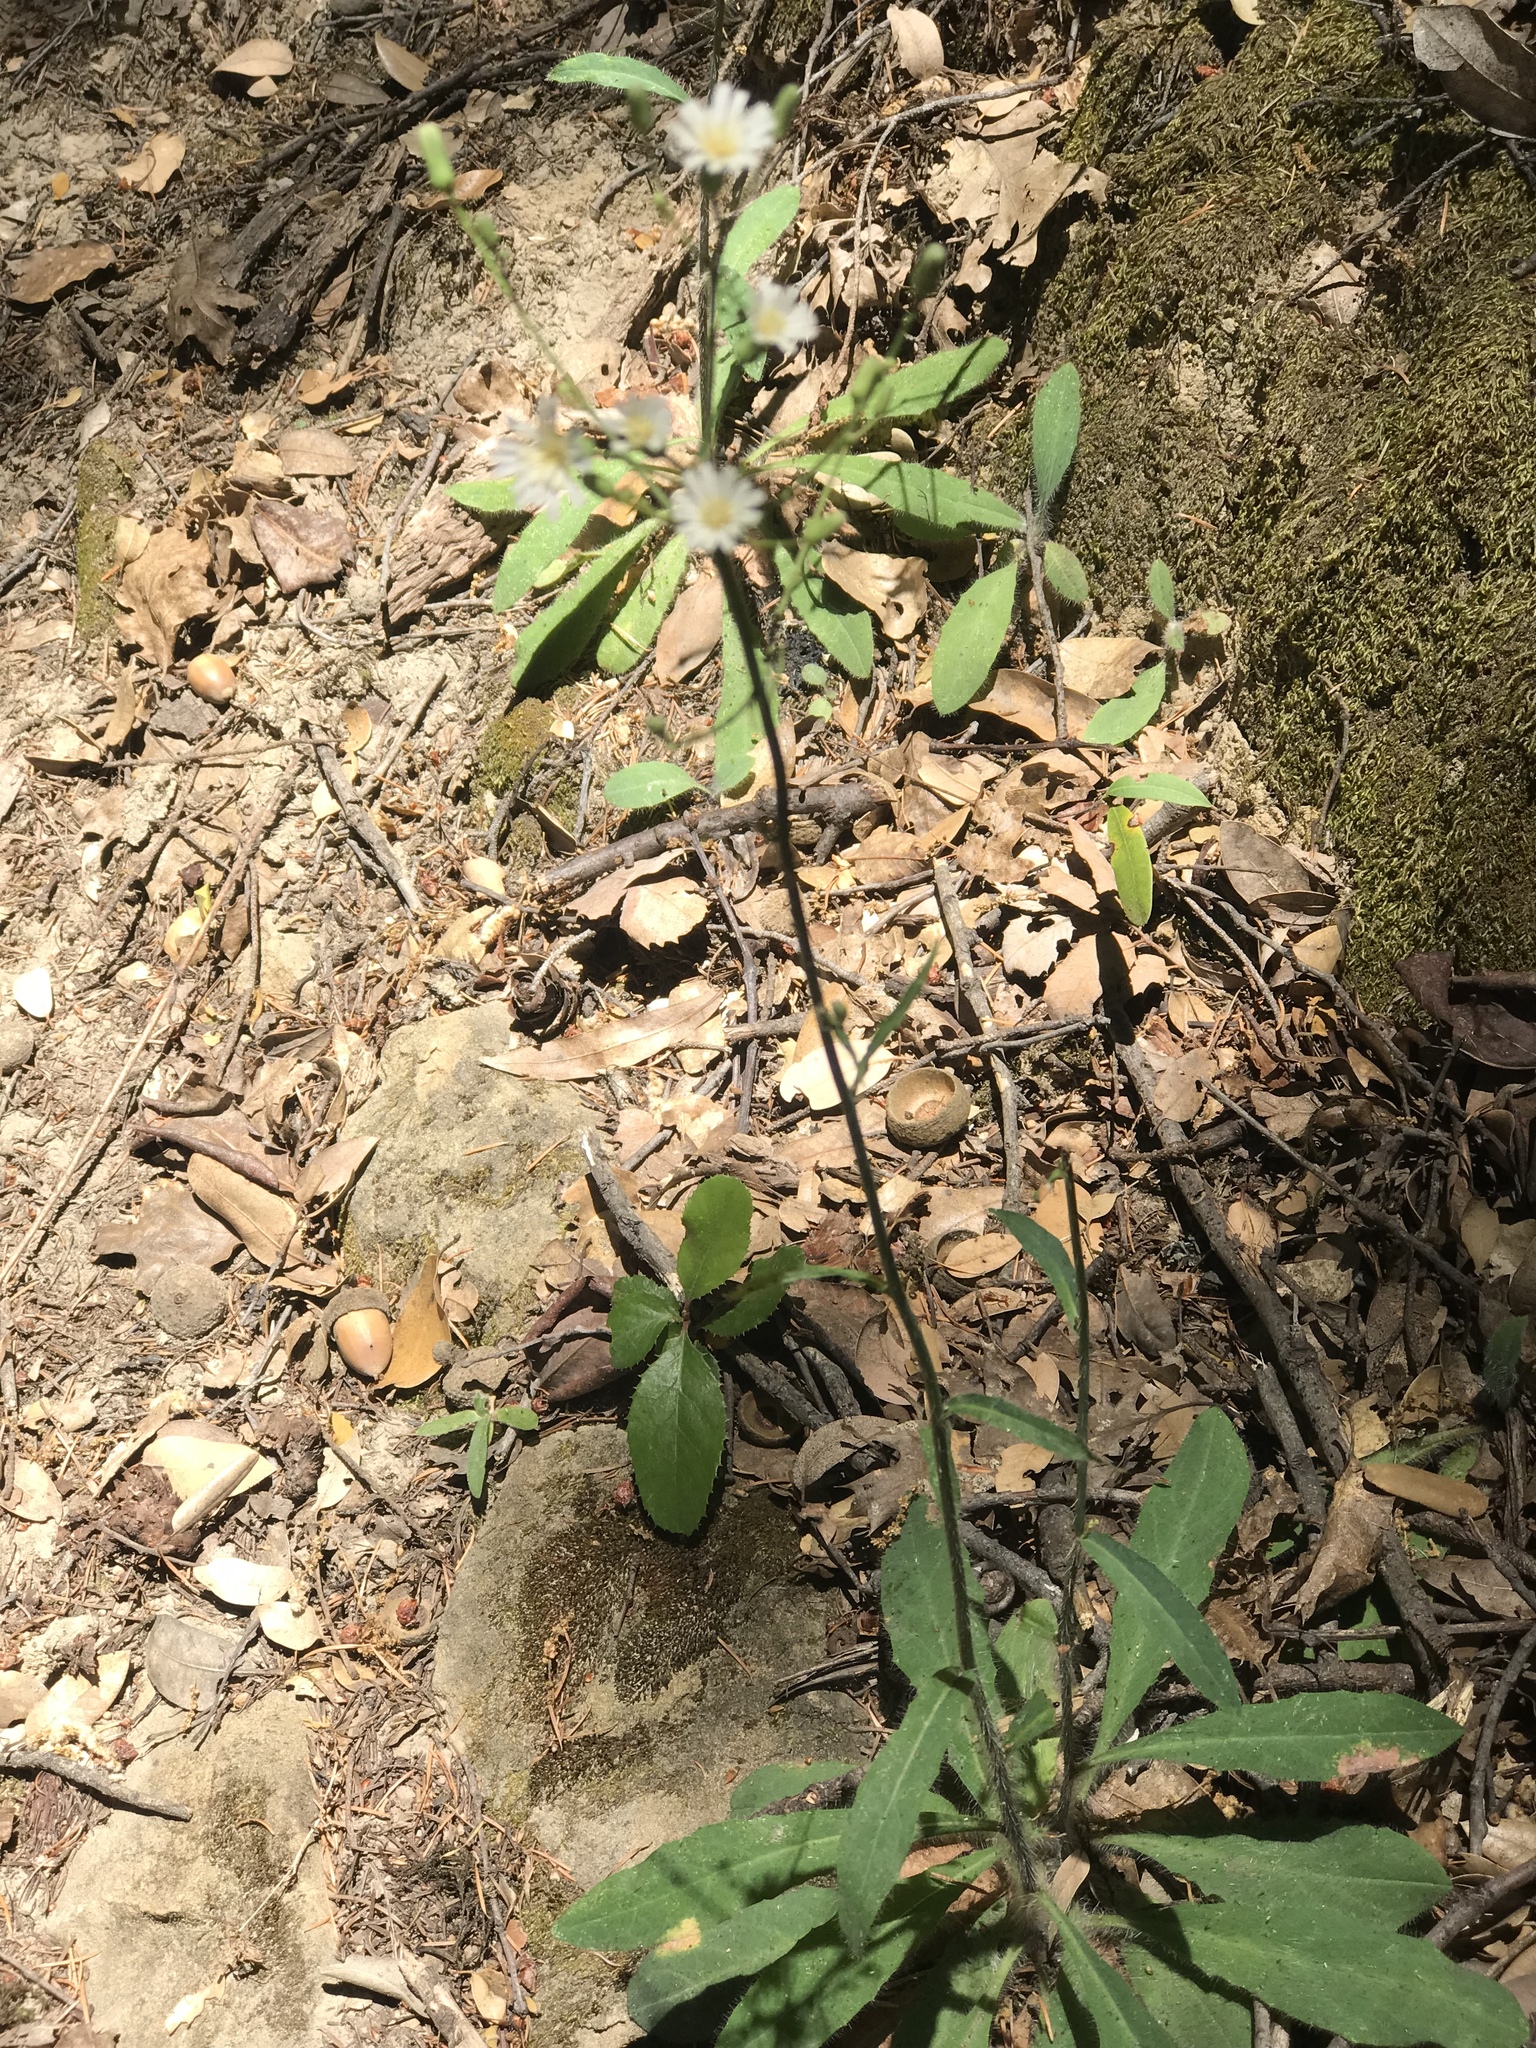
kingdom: Plantae
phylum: Tracheophyta
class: Magnoliopsida
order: Asterales
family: Asteraceae
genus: Hieracium
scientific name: Hieracium albiflorum
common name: White hawkweed
